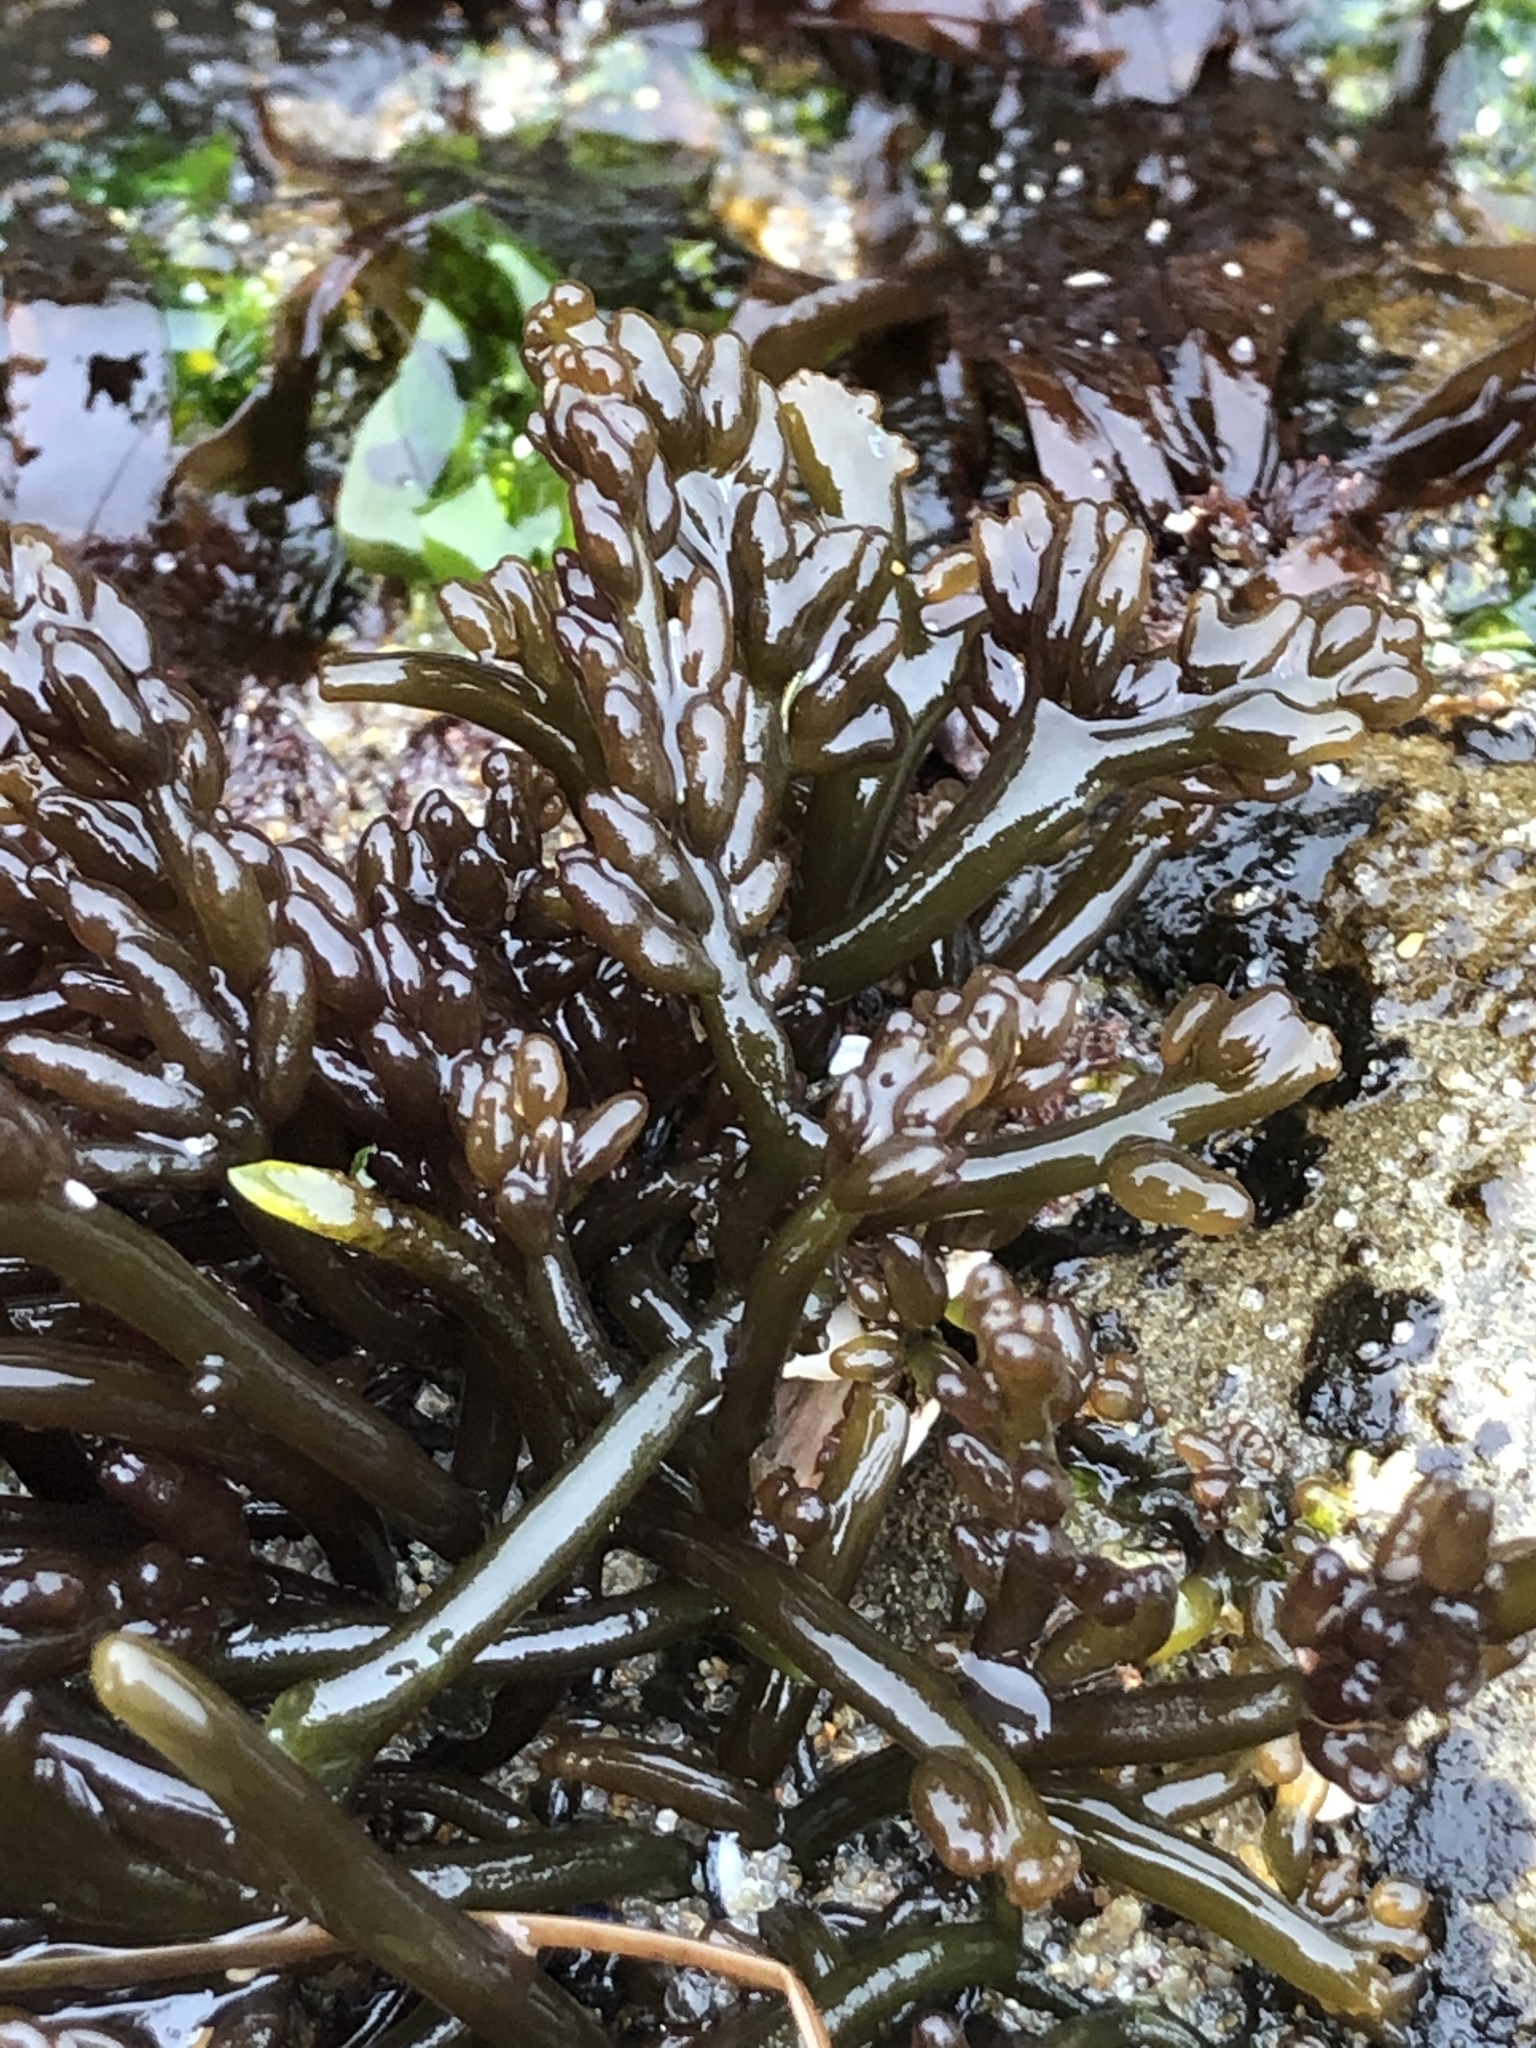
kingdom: Plantae
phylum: Rhodophyta
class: Florideophyceae
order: Rhodymeniales
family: Champiaceae
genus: Neogastroclonium
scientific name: Neogastroclonium subarticulatum
